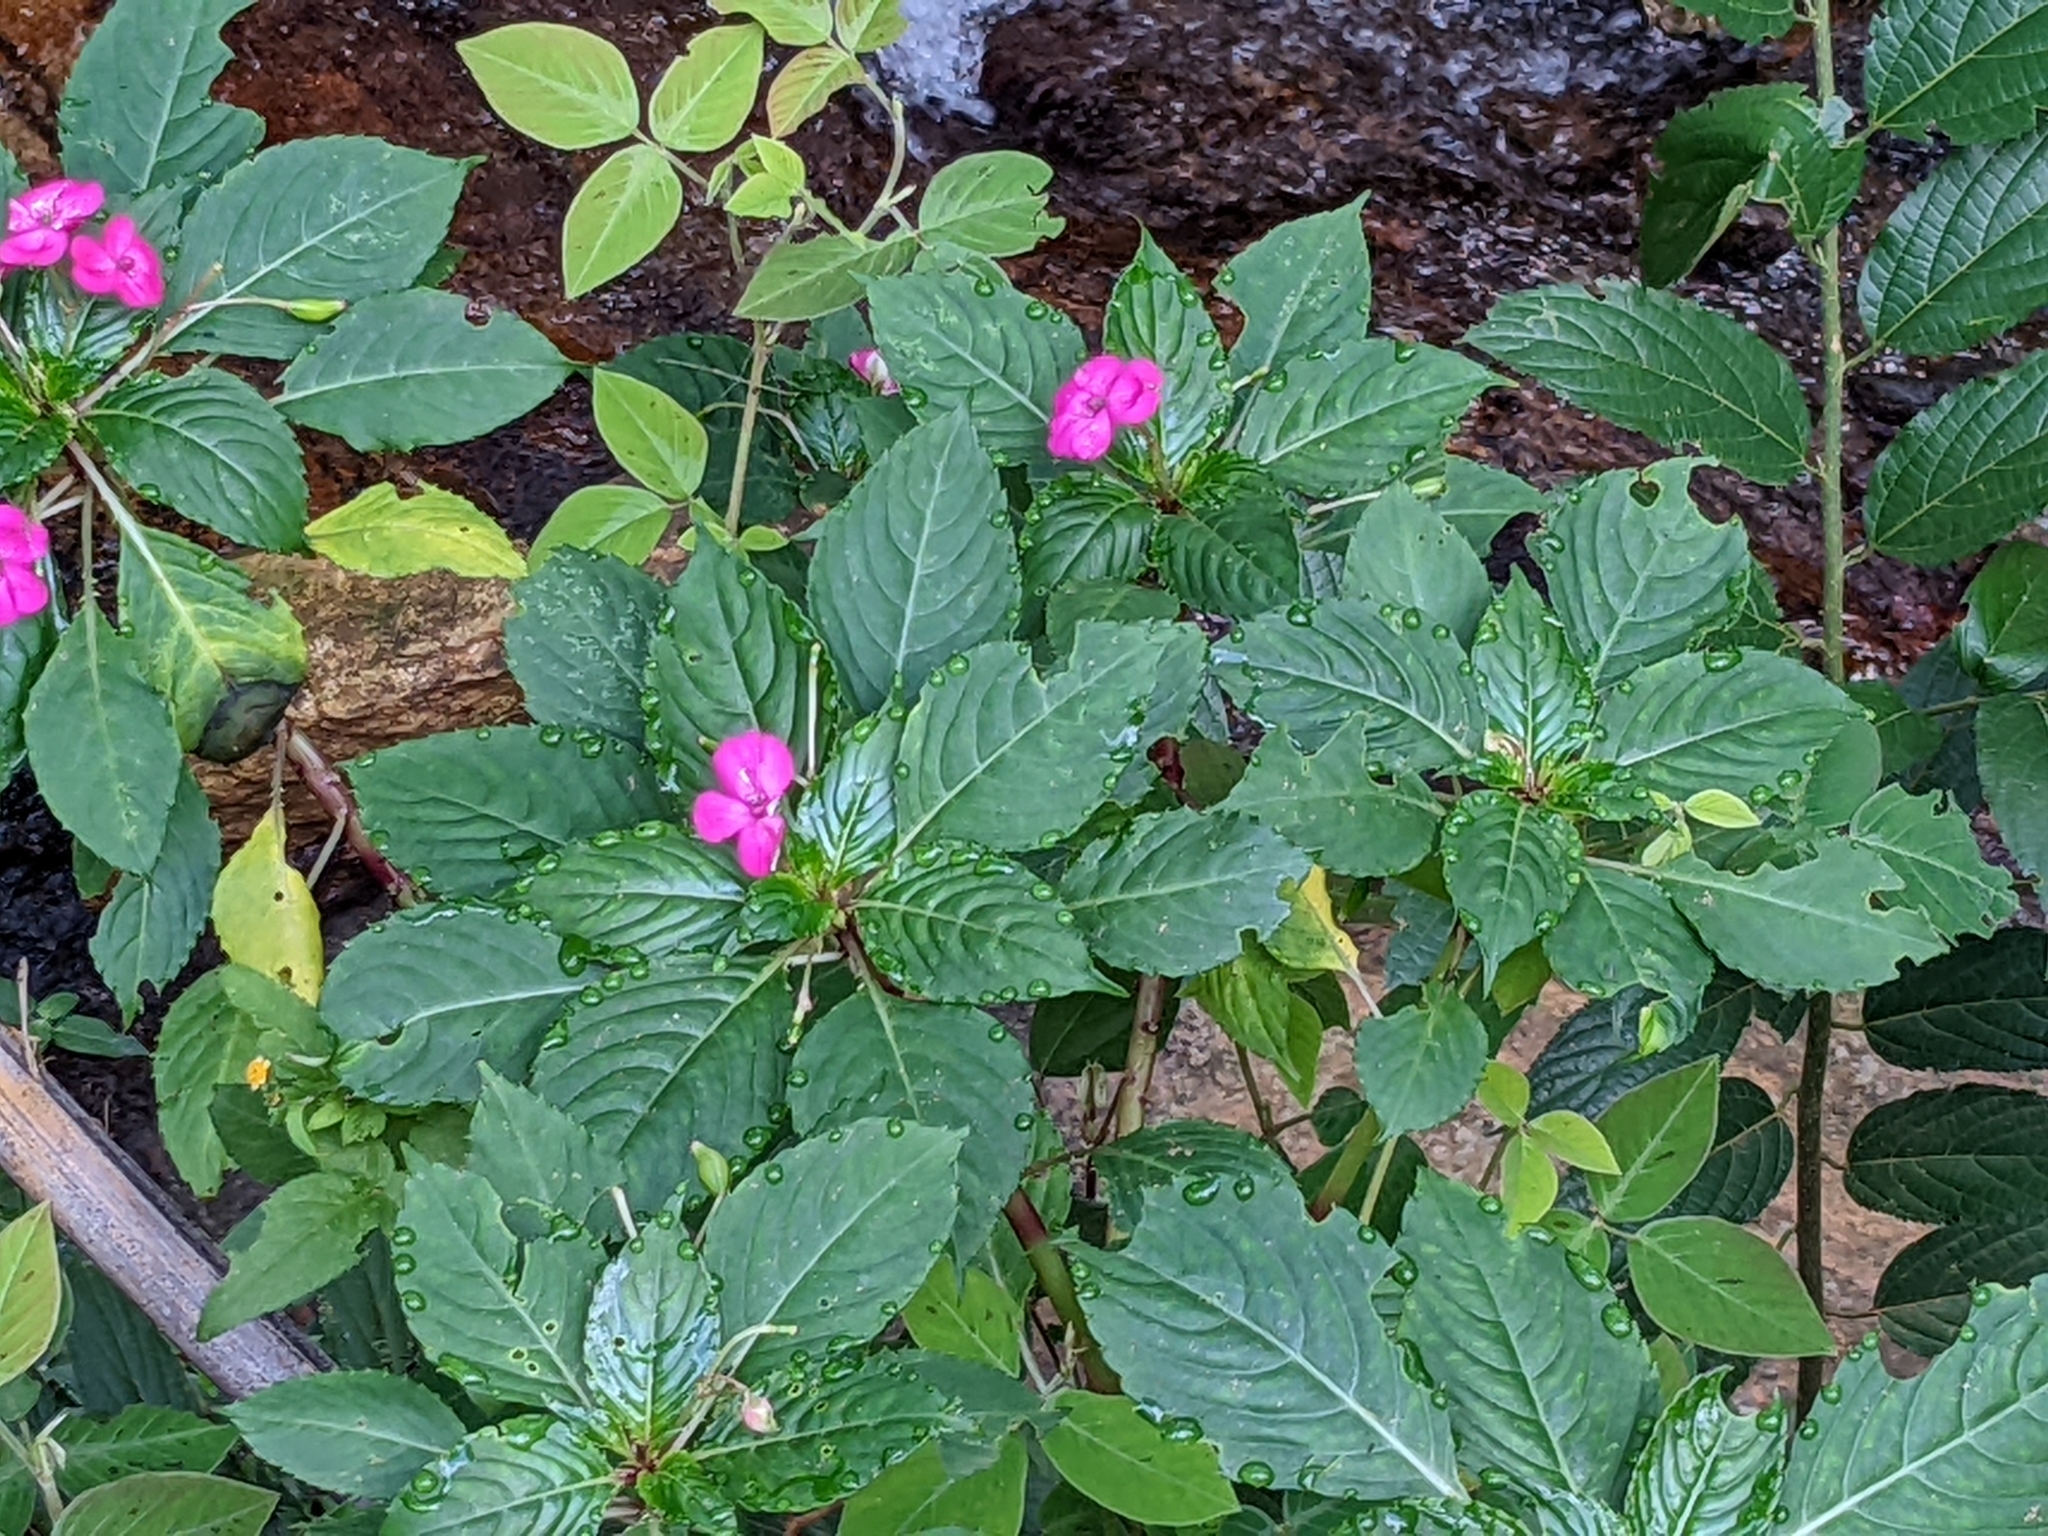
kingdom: Plantae
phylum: Tracheophyta
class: Magnoliopsida
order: Ericales
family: Balsaminaceae
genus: Impatiens
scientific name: Impatiens walleriana
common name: Buzzy lizzy
